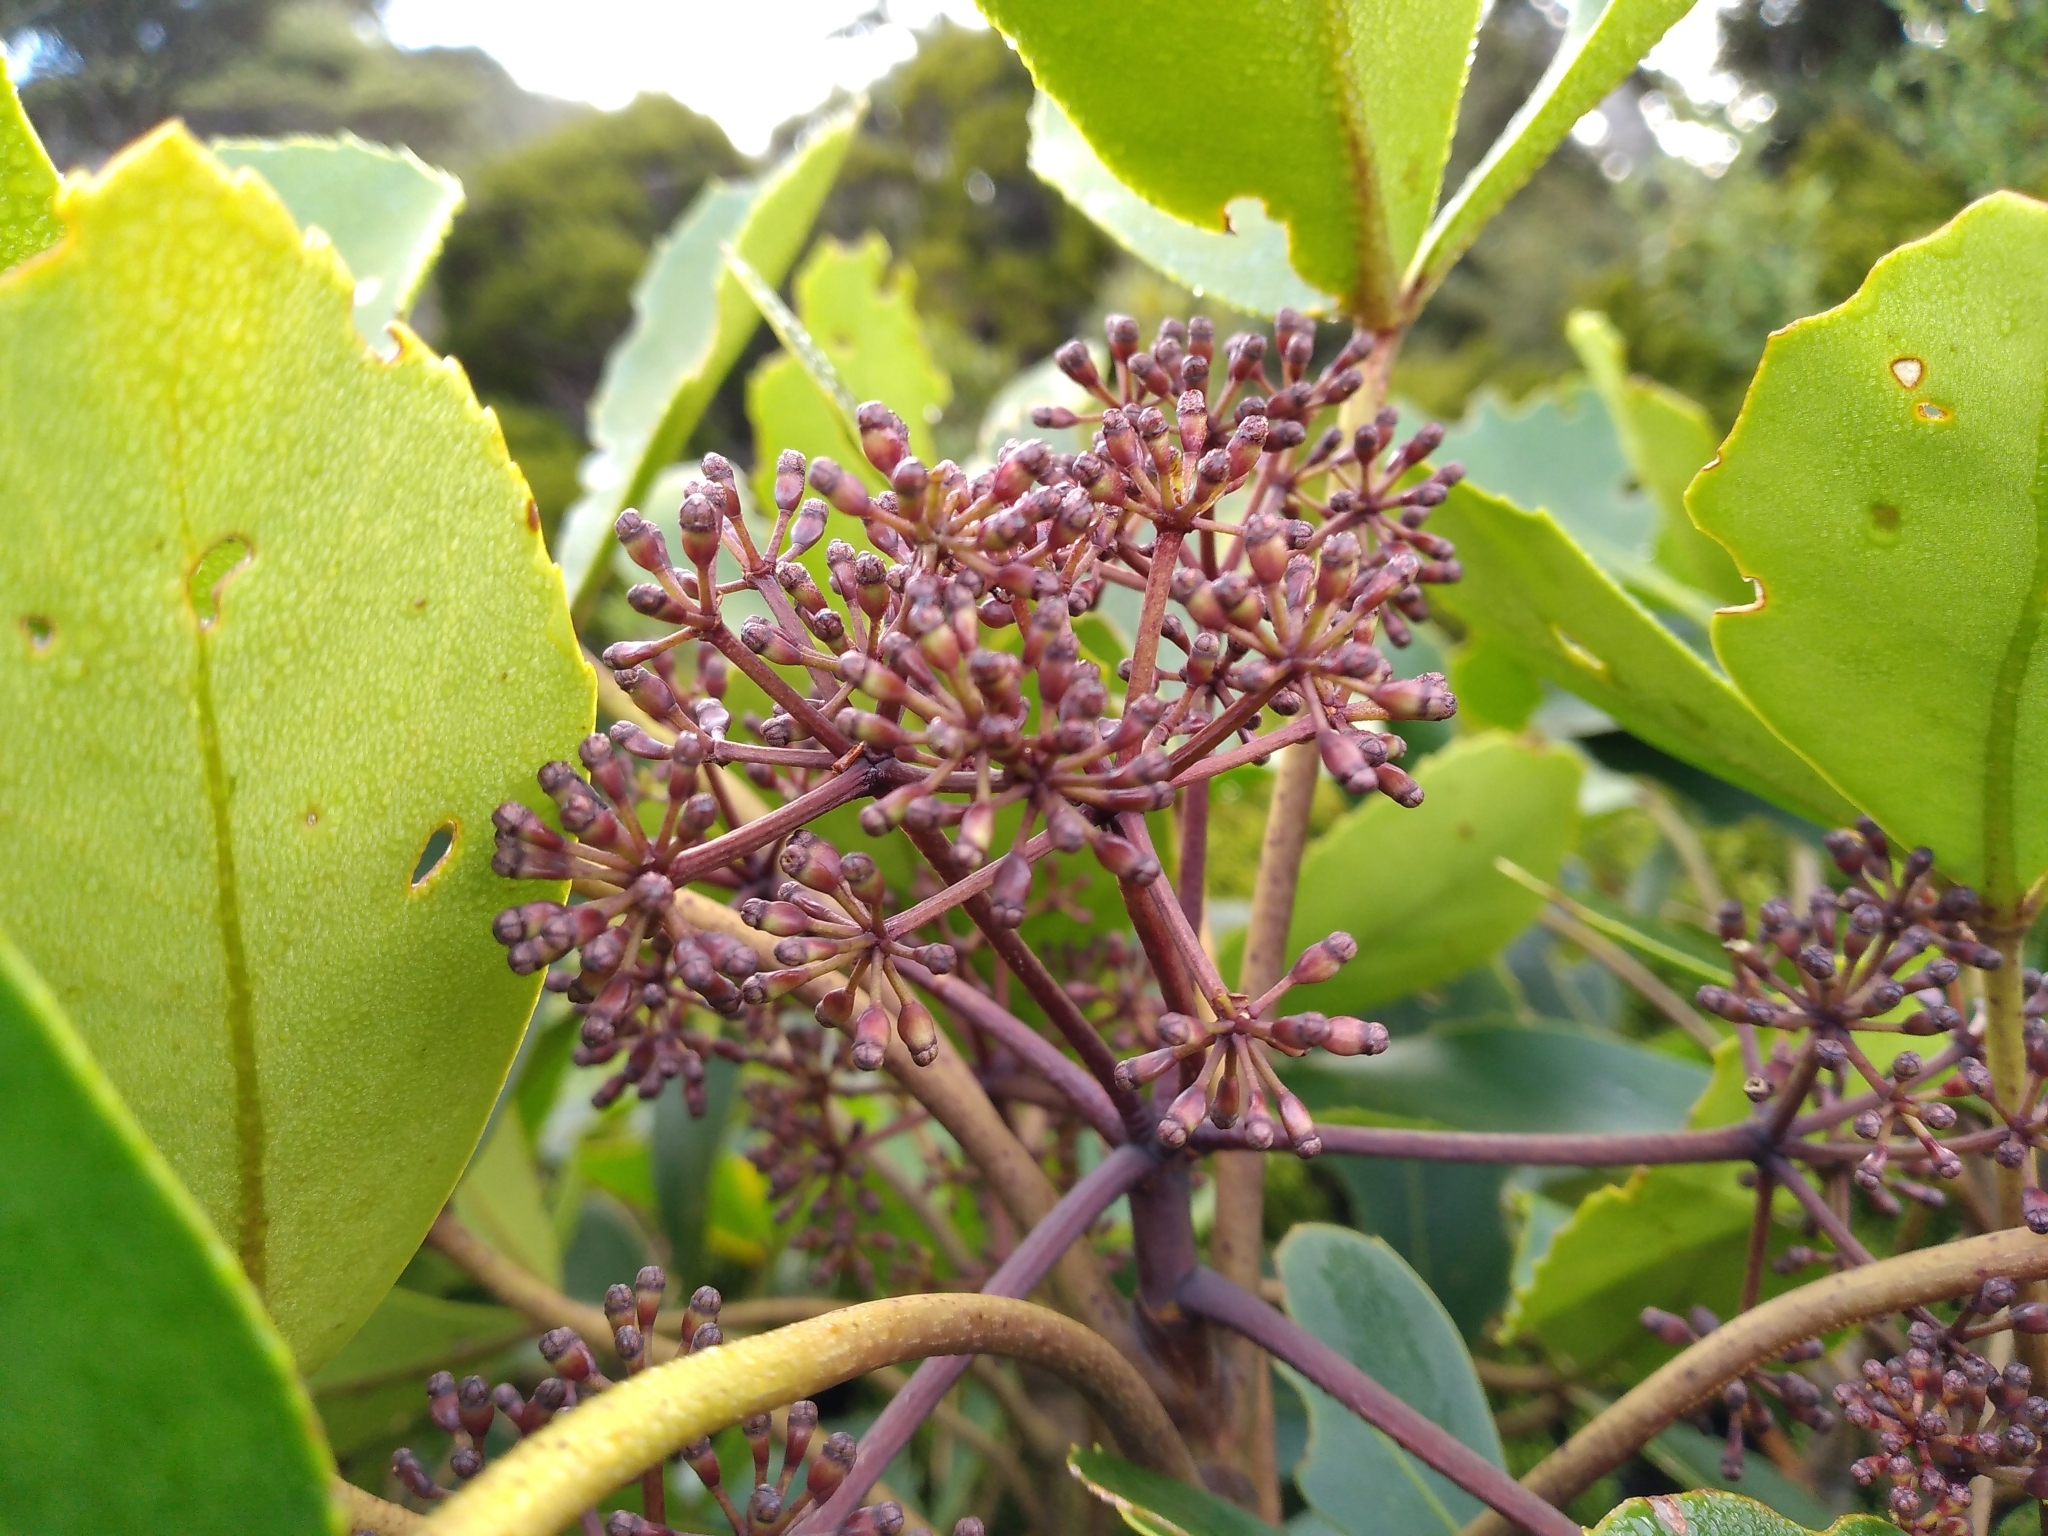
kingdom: Plantae
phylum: Tracheophyta
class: Magnoliopsida
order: Apiales
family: Araliaceae
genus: Neopanax
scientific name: Neopanax colensoi
